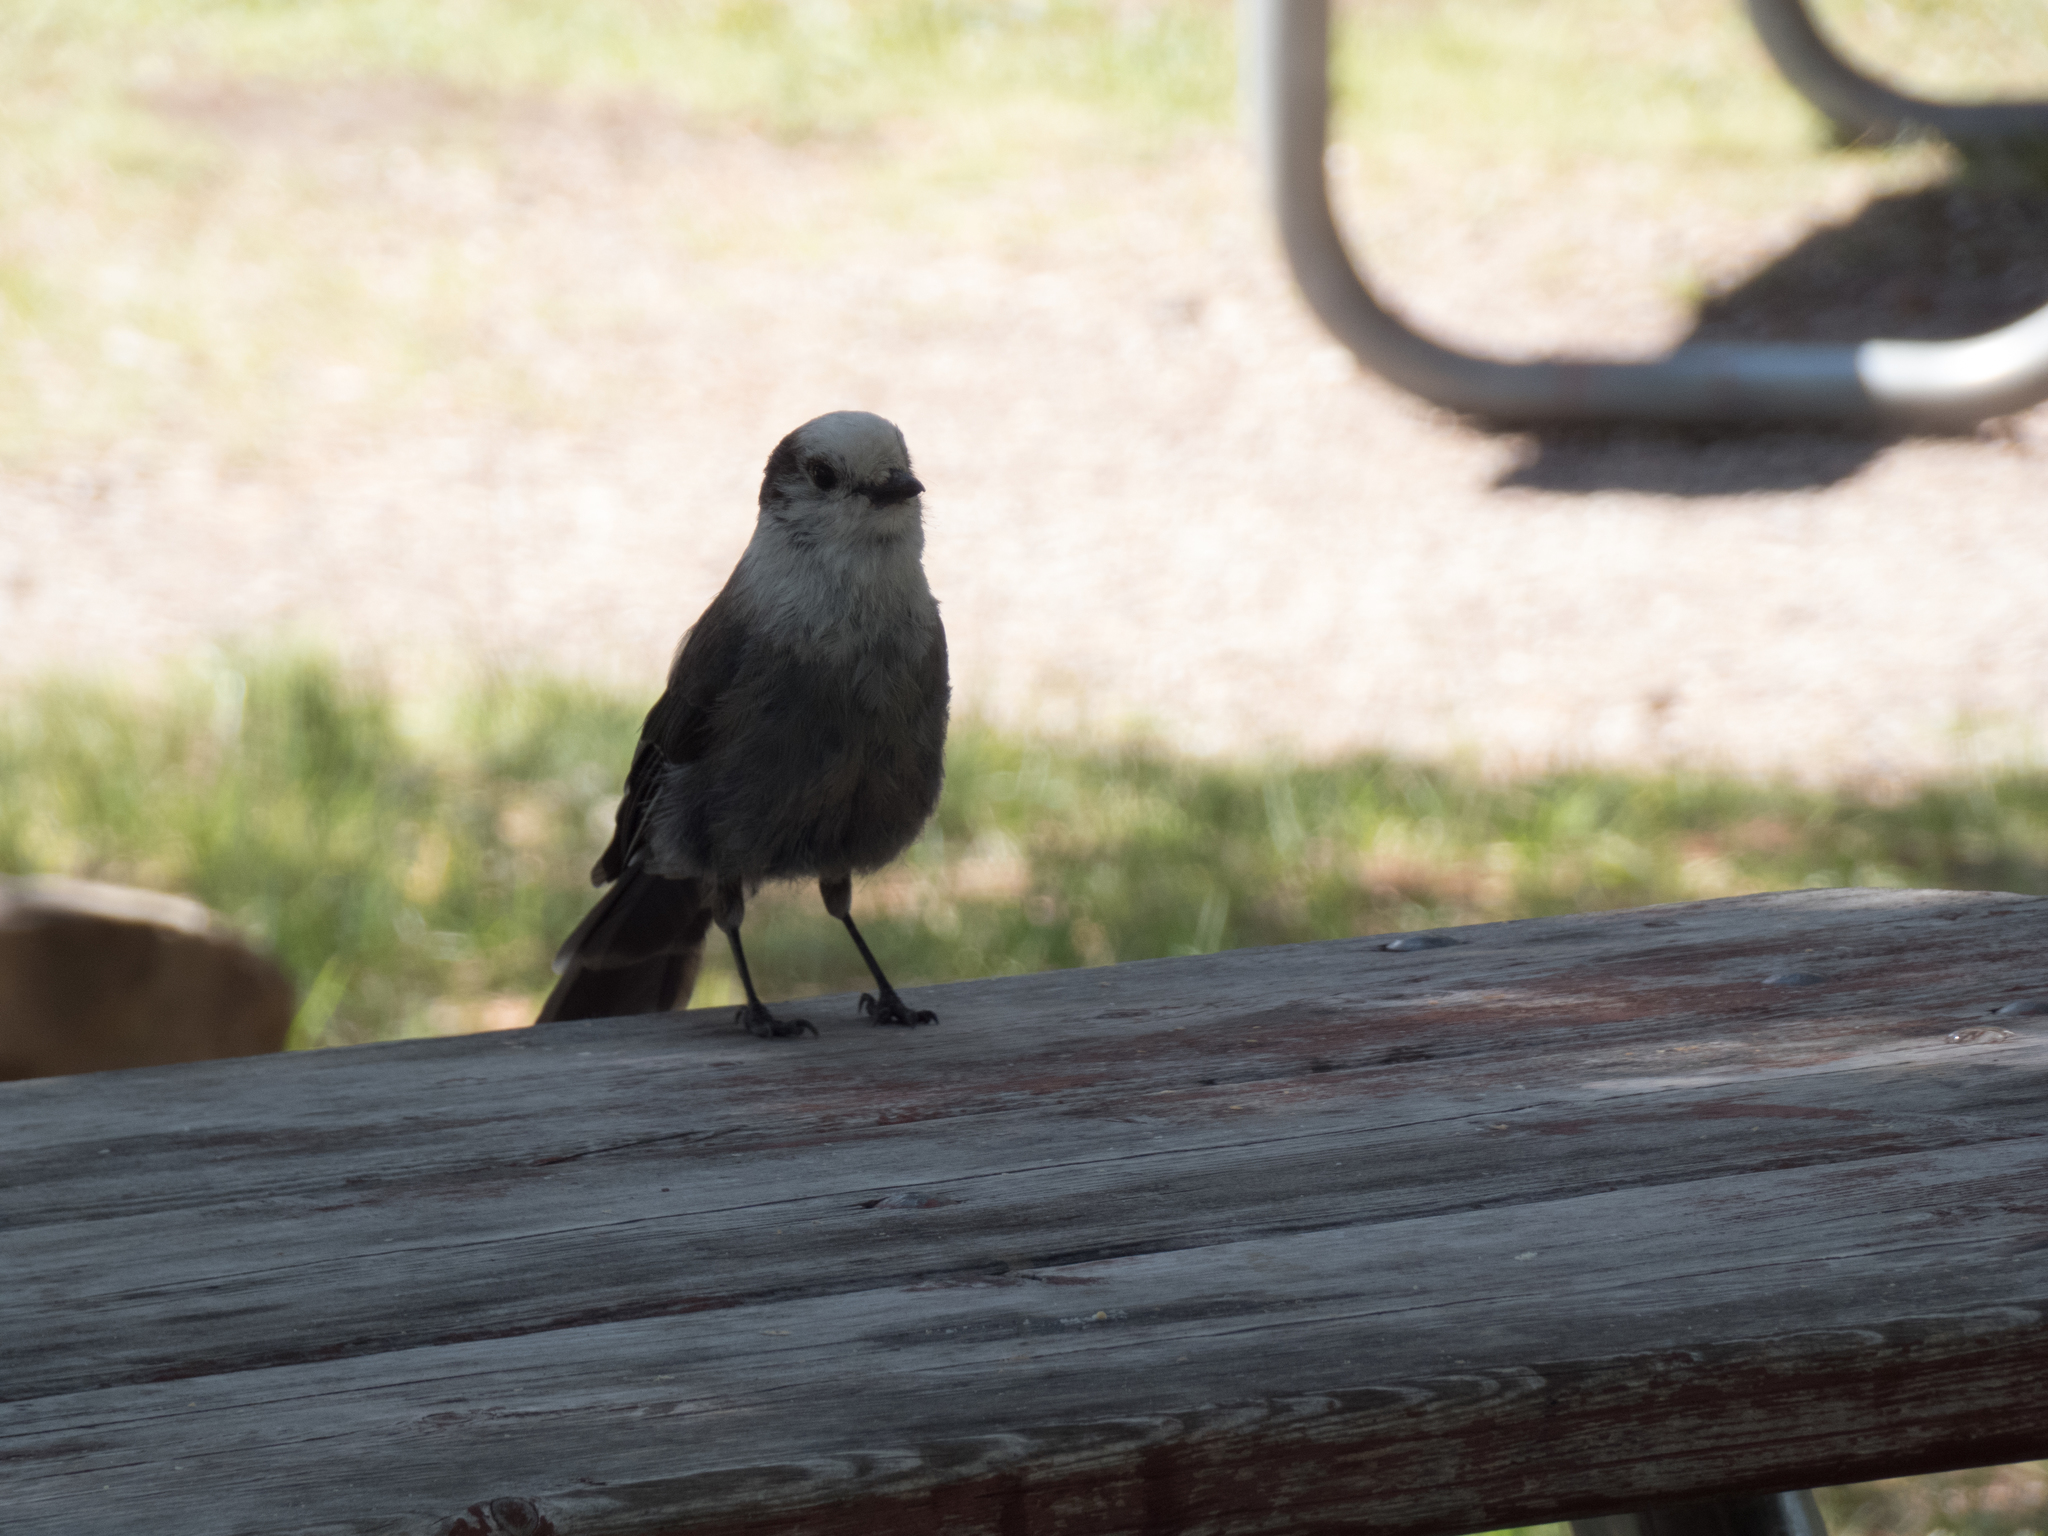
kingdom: Animalia
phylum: Chordata
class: Aves
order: Passeriformes
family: Corvidae
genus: Perisoreus
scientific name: Perisoreus canadensis
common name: Gray jay
